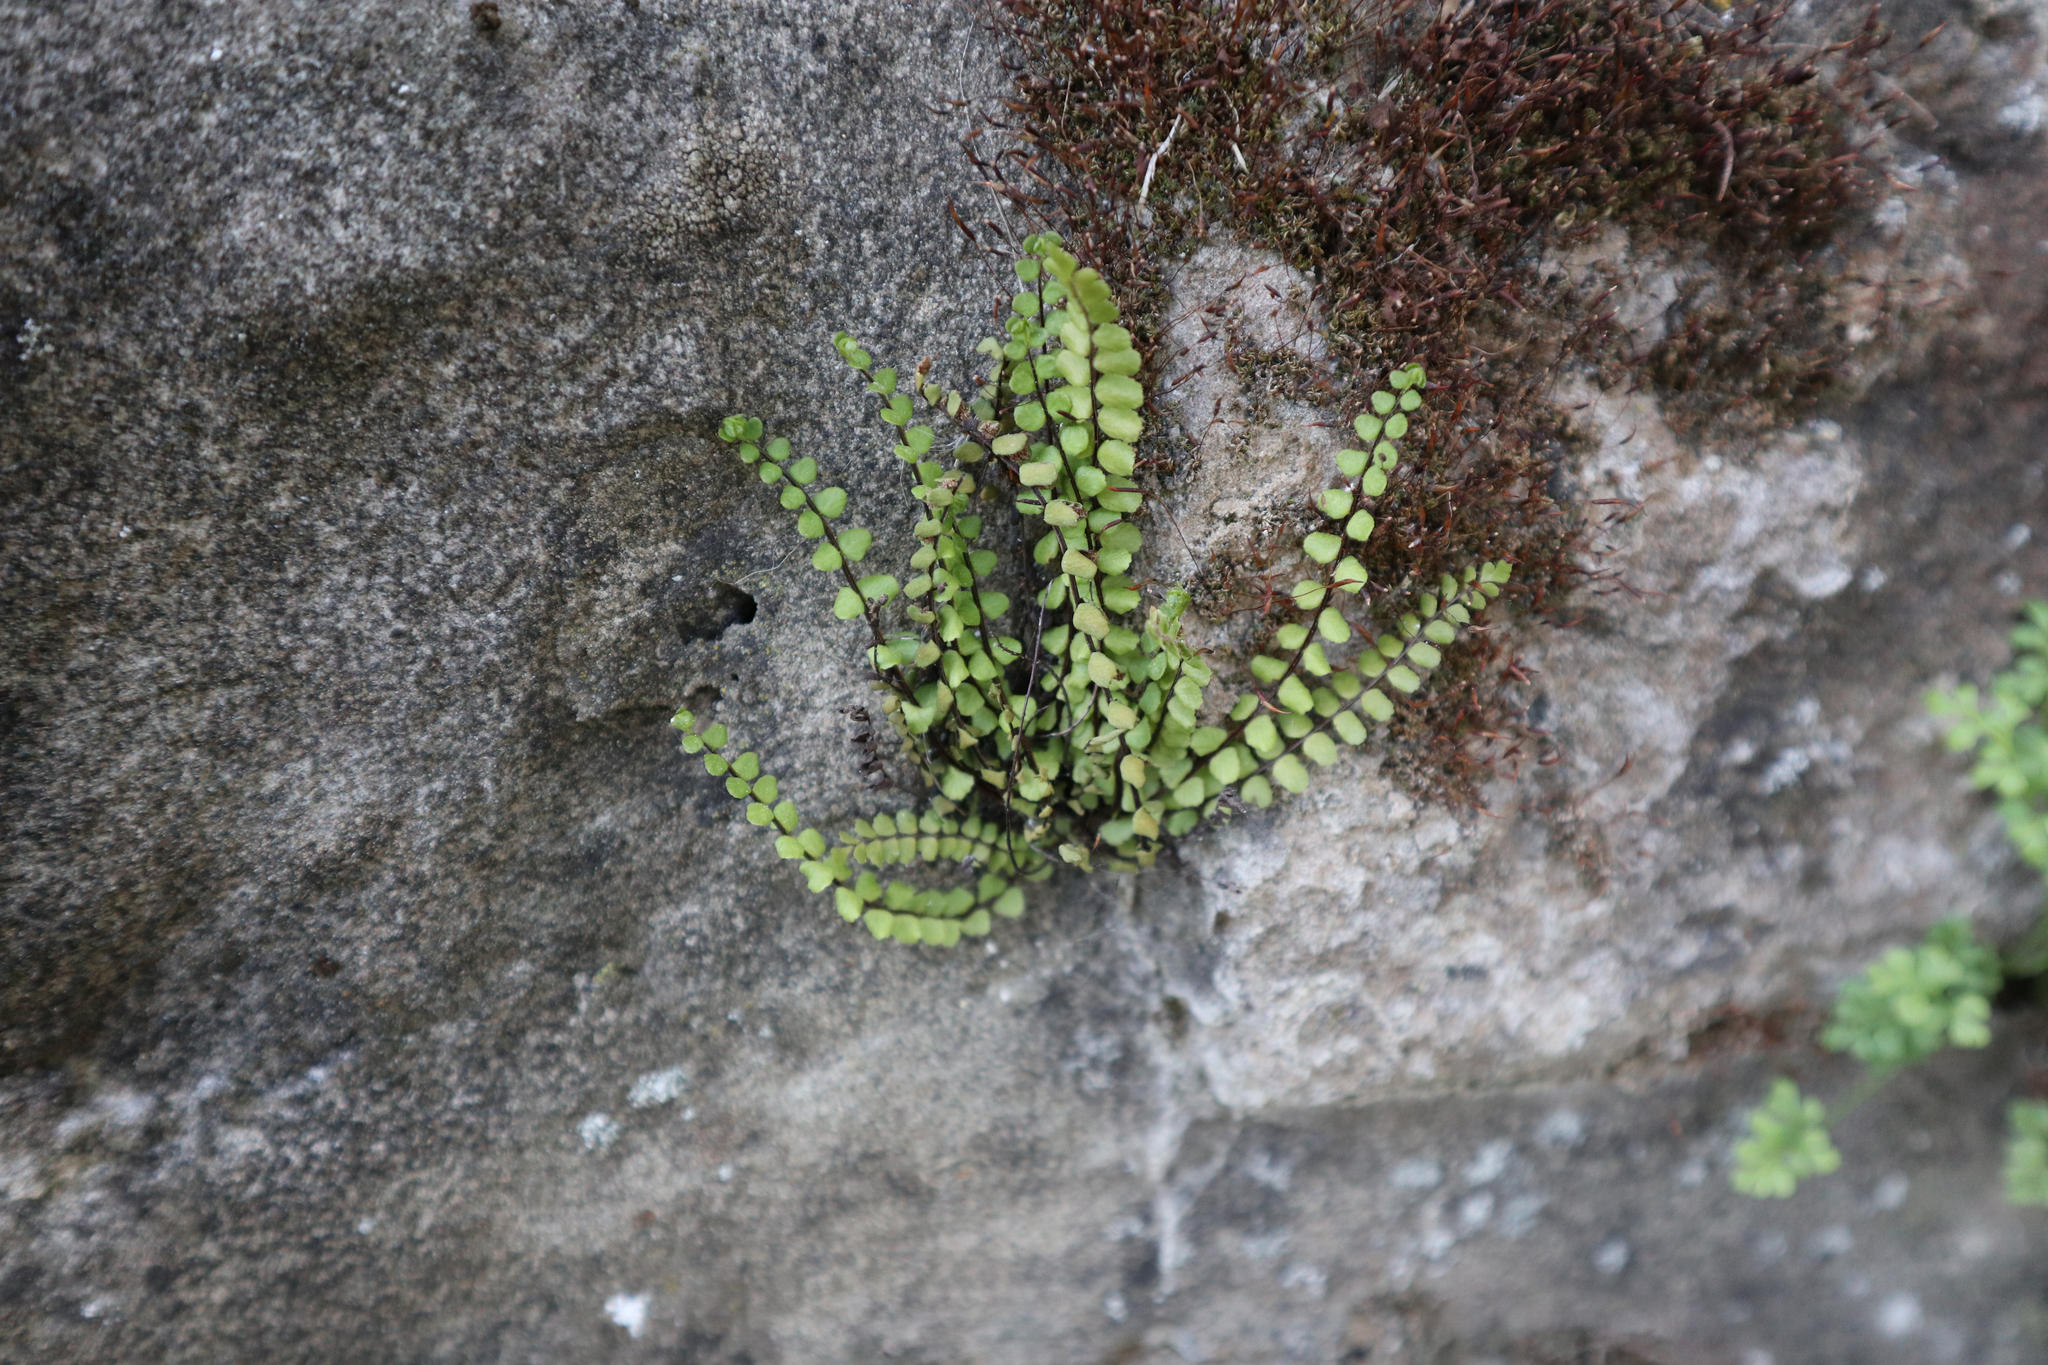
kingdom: Plantae
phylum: Tracheophyta
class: Polypodiopsida
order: Polypodiales
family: Aspleniaceae
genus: Asplenium
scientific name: Asplenium trichomanes
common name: Maidenhair spleenwort
